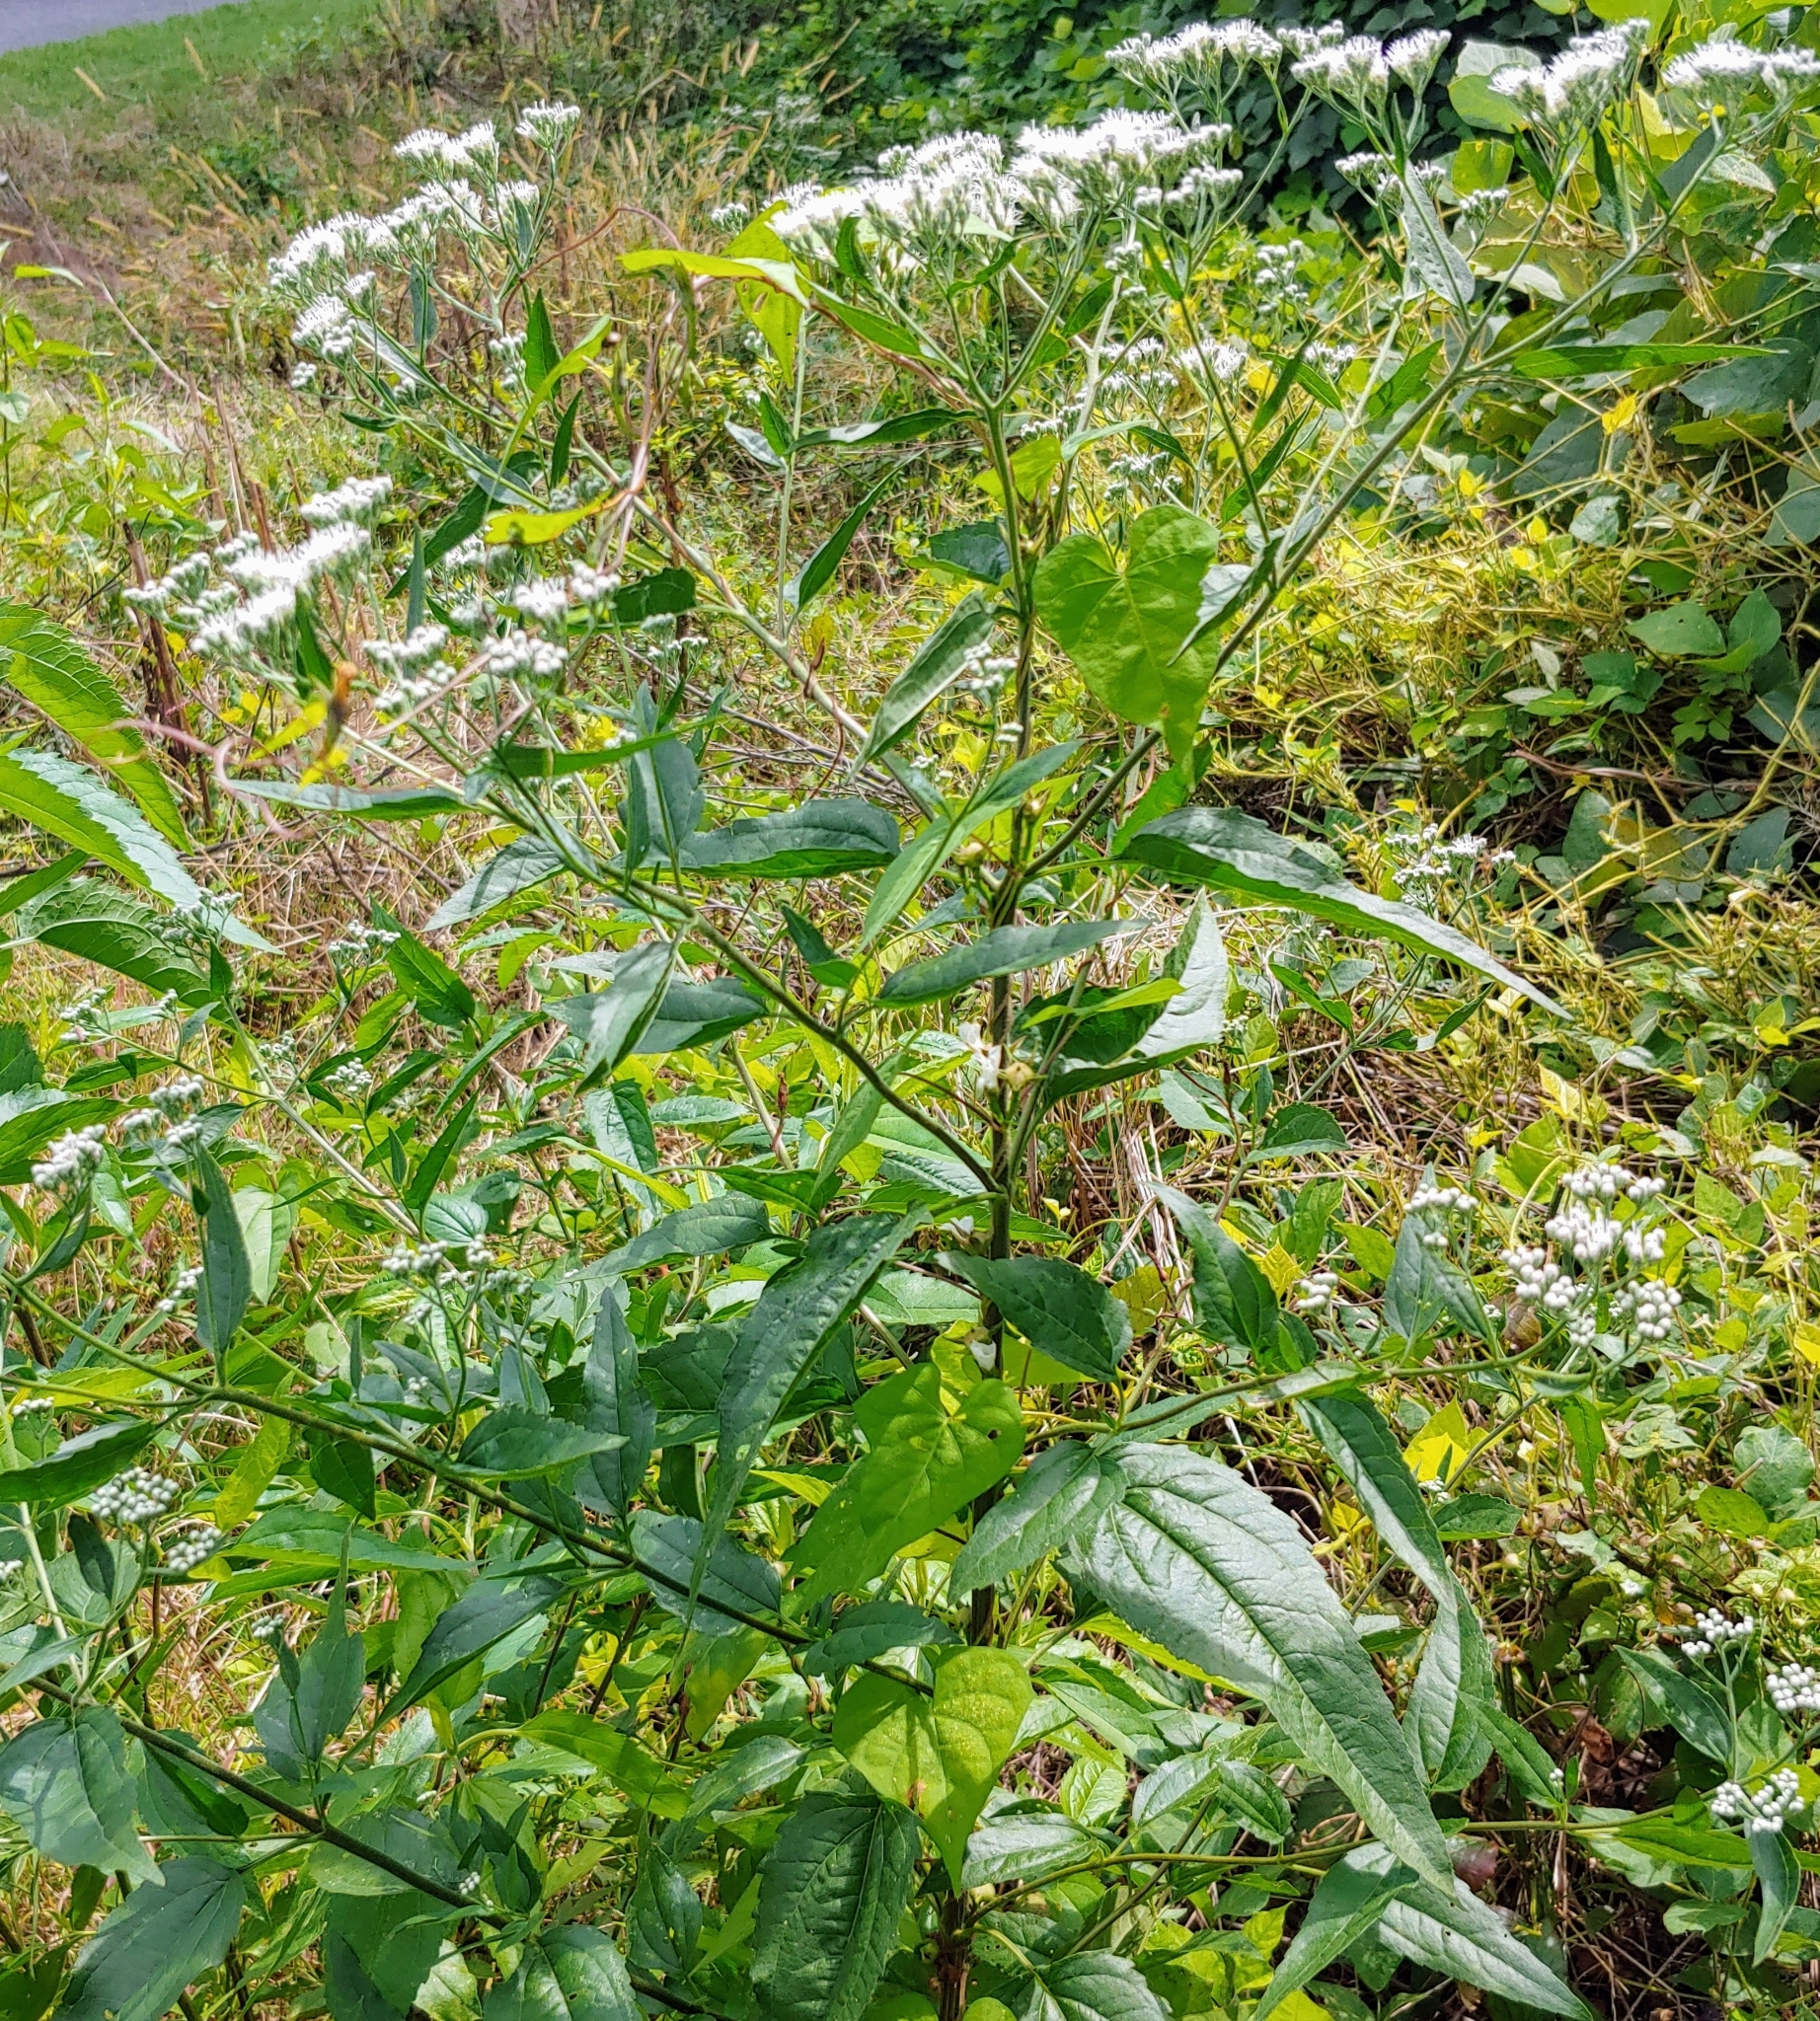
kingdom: Plantae
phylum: Tracheophyta
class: Magnoliopsida
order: Asterales
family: Asteraceae
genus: Eupatorium
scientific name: Eupatorium serotinum
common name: Late boneset
